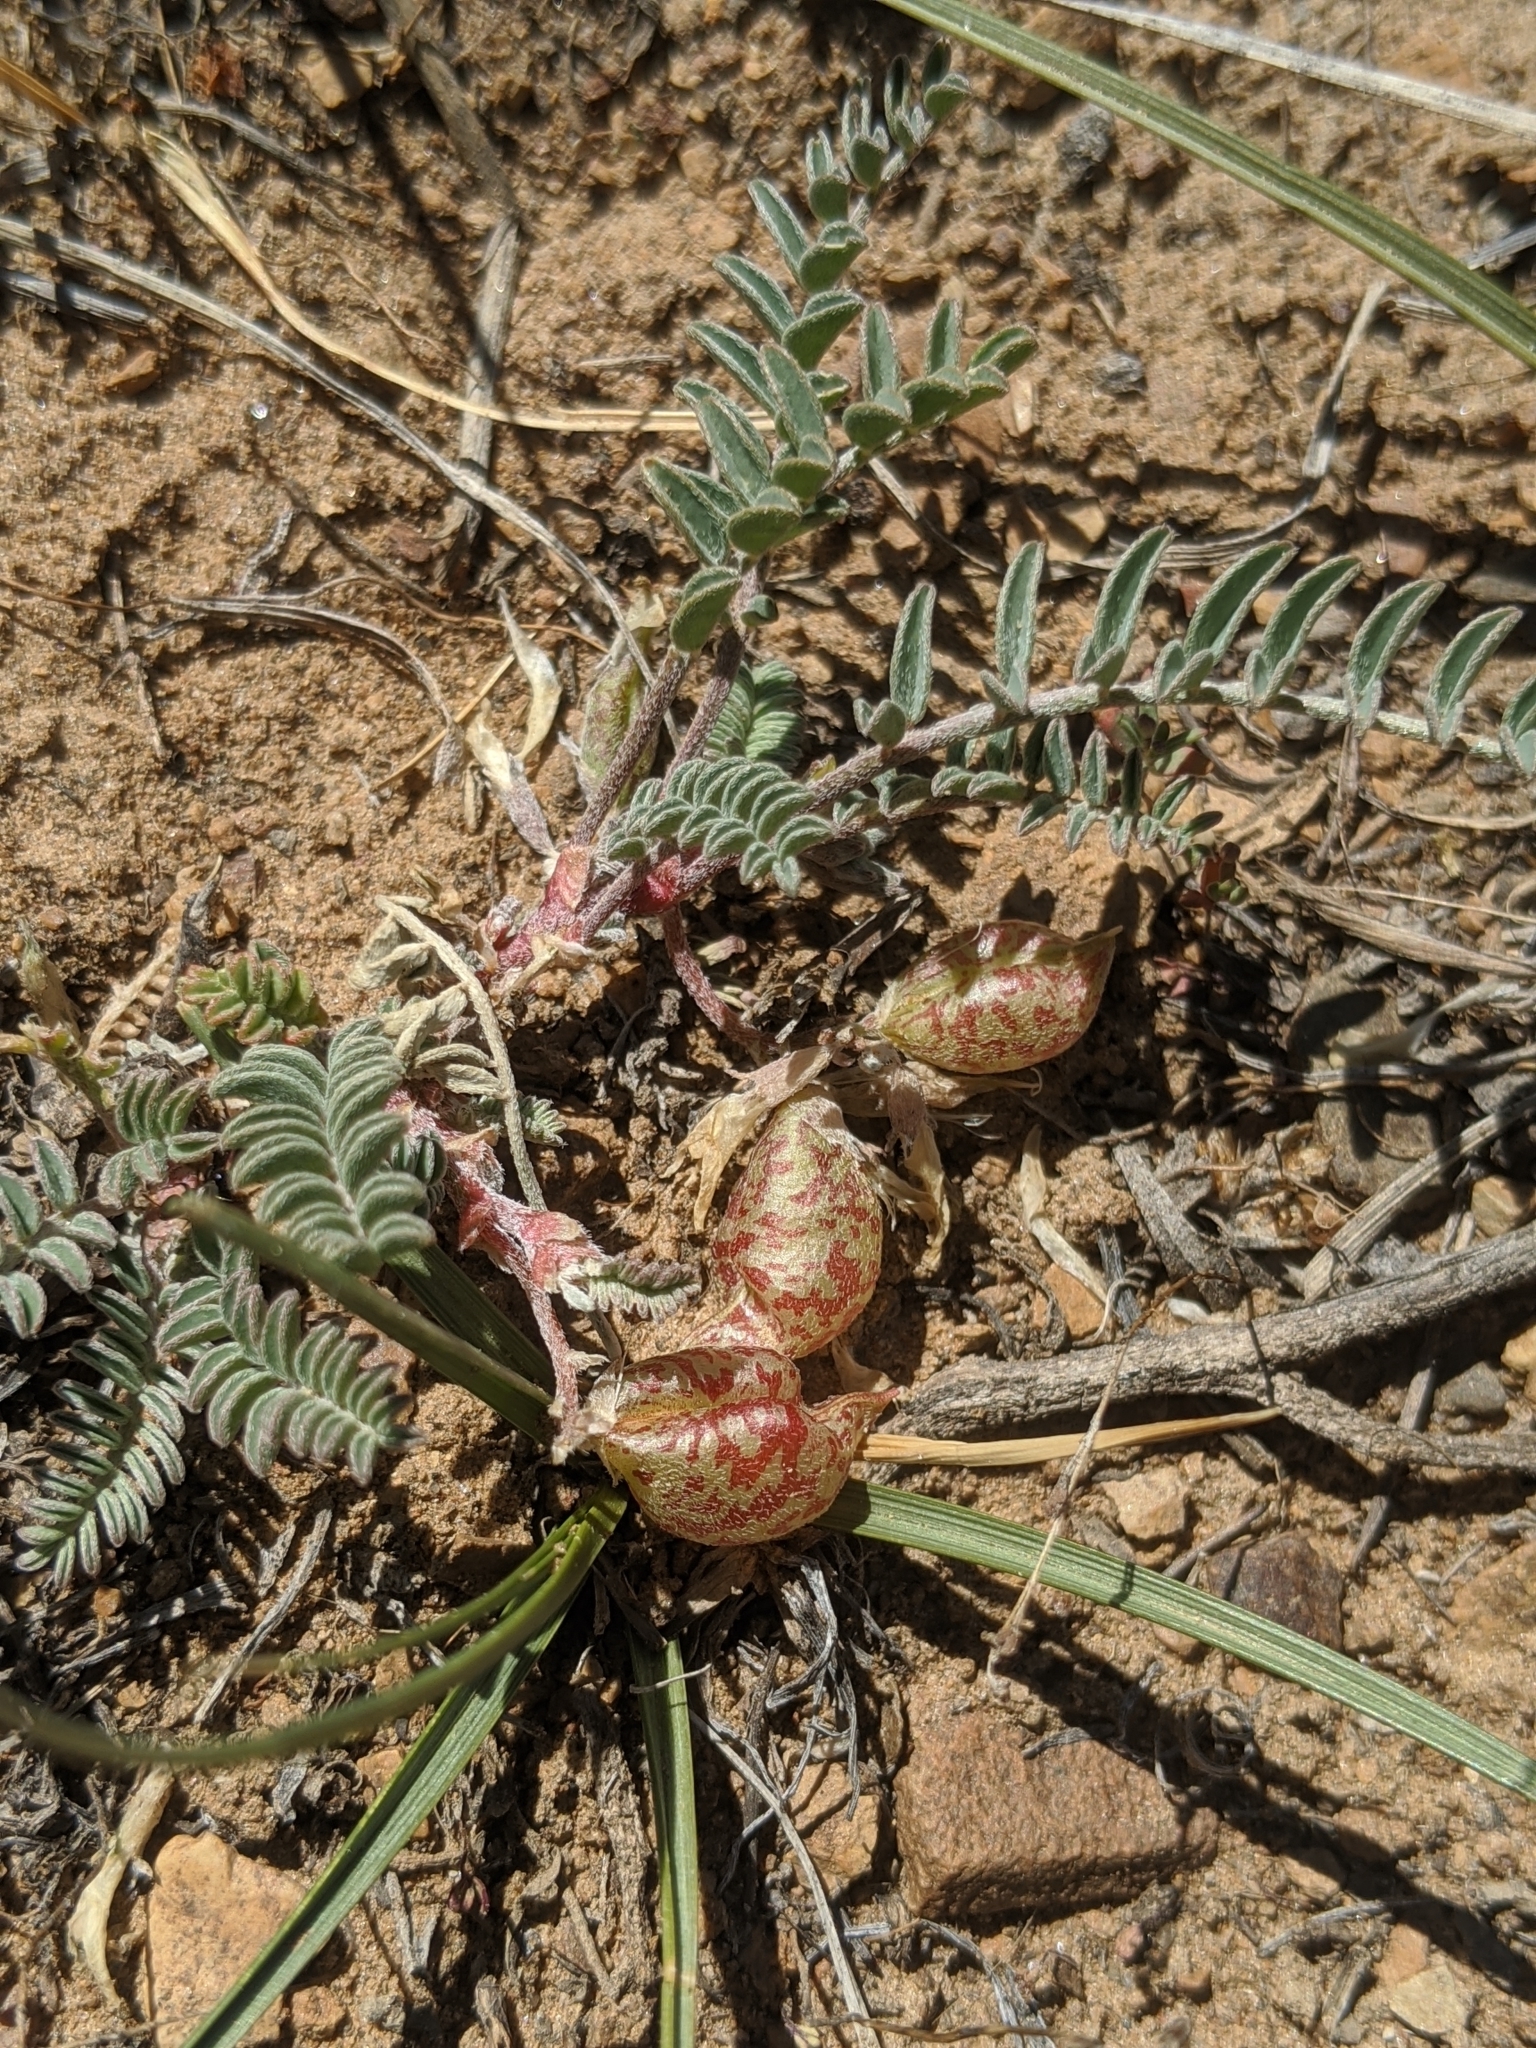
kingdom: Plantae
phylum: Tracheophyta
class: Magnoliopsida
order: Fabales
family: Fabaceae
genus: Astragalus
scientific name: Astragalus lentiginosus
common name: Freckled milkvetch
